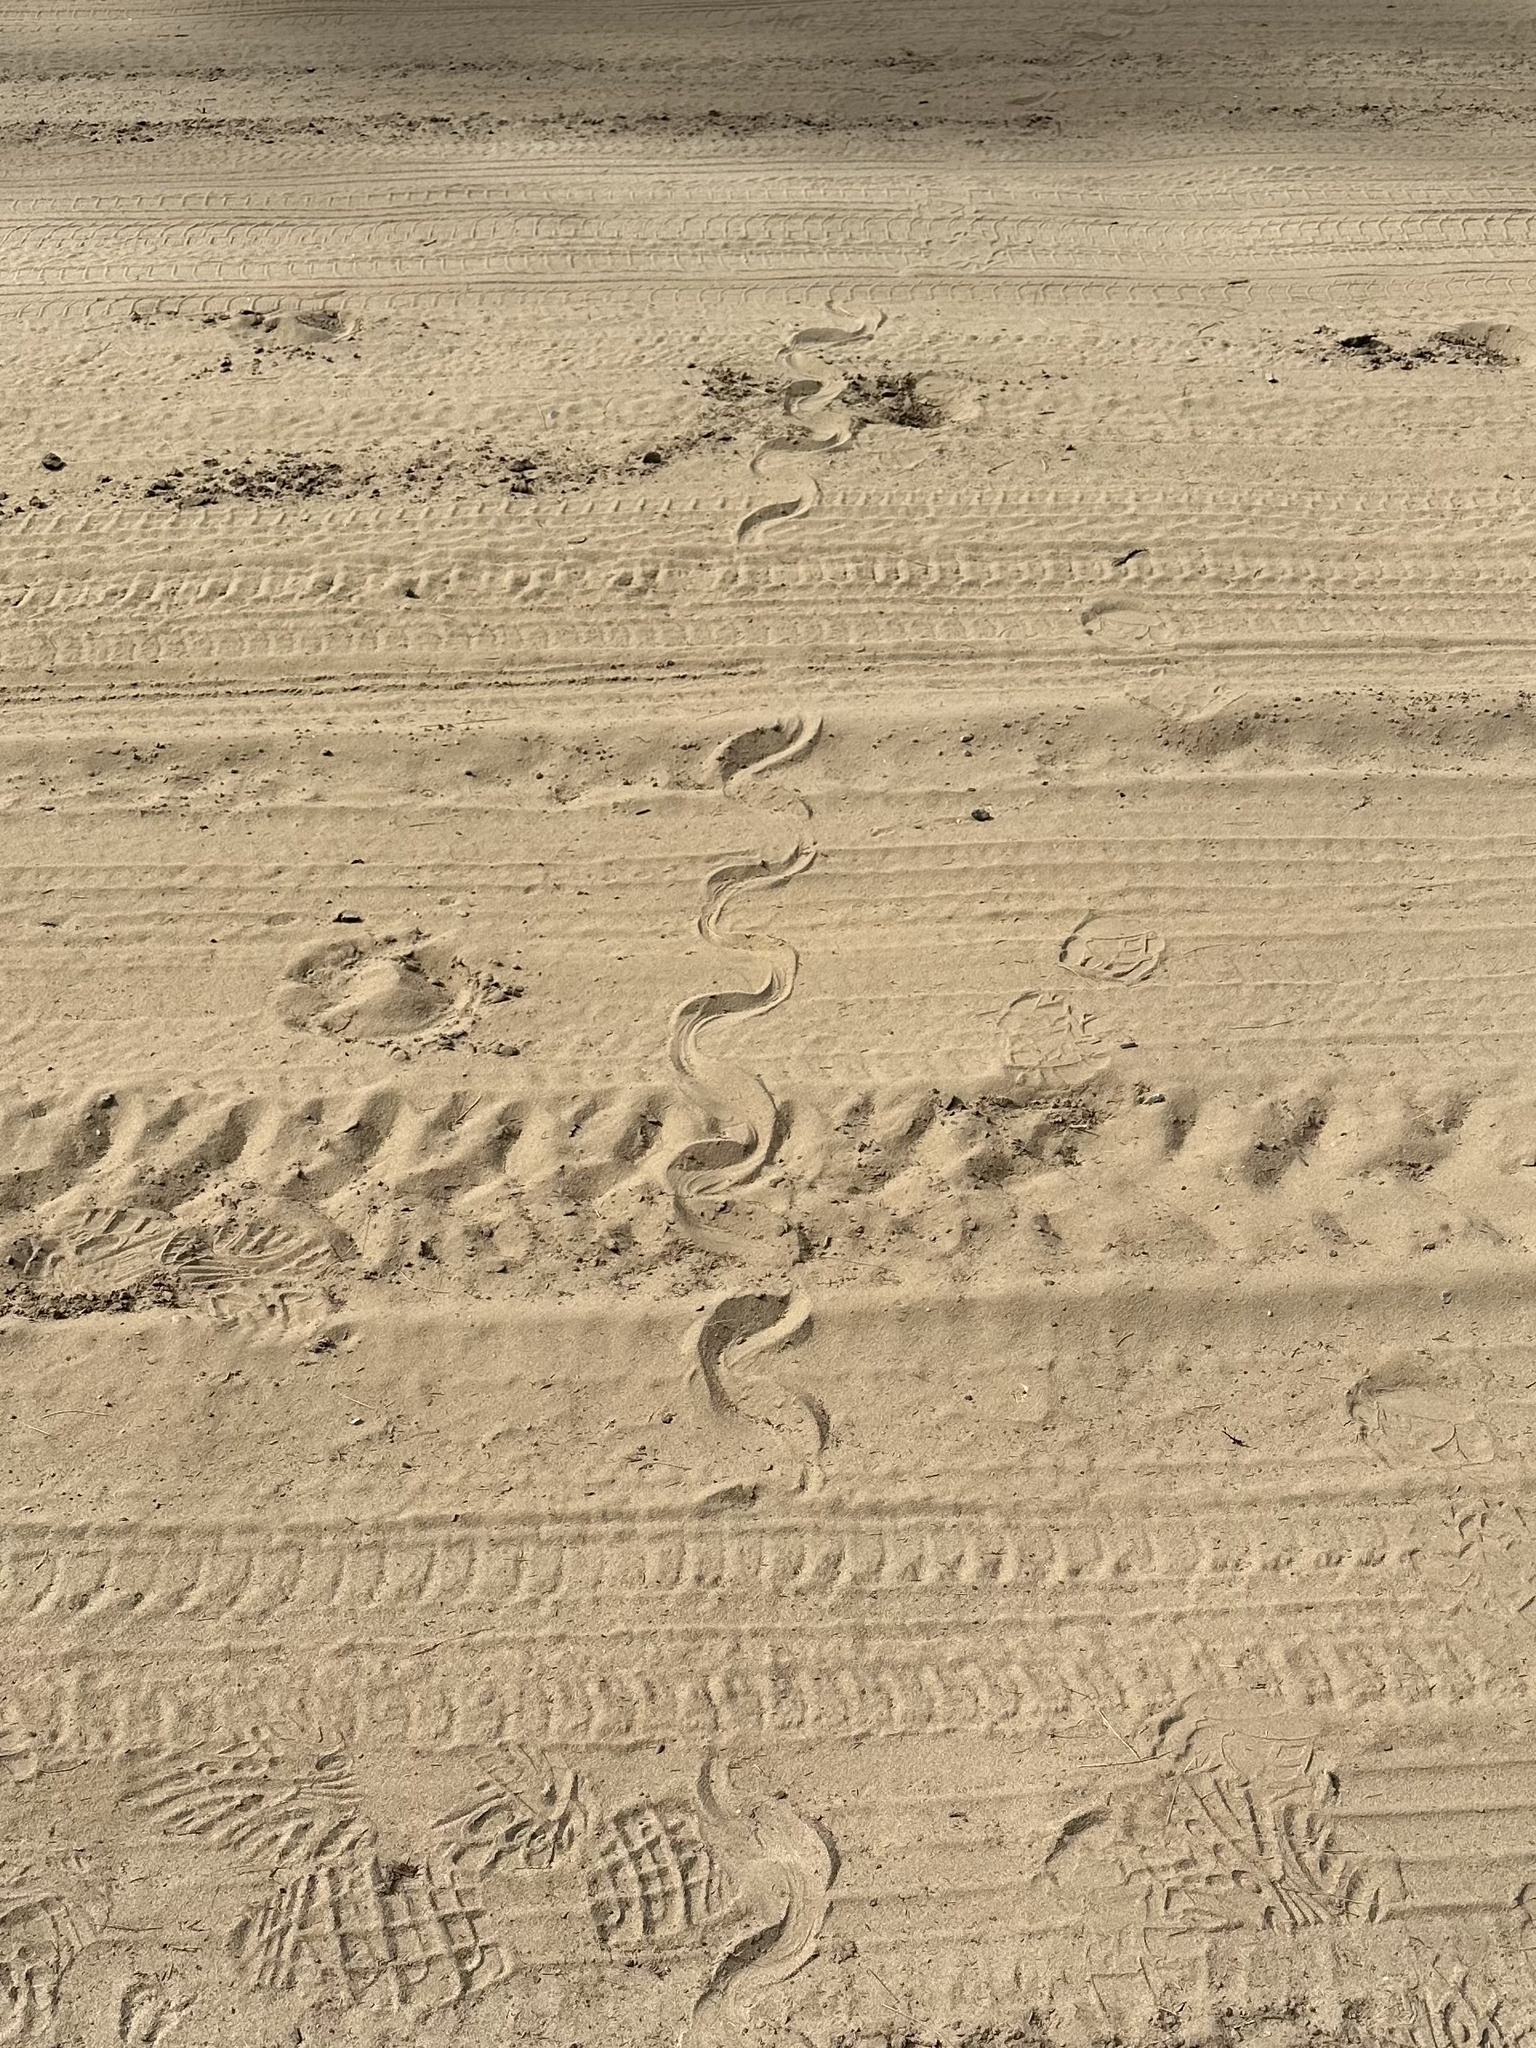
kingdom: Animalia
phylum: Chordata
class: Squamata
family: Colubridae
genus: Heterodon
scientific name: Heterodon platirhinos
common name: Eastern hognose snake
